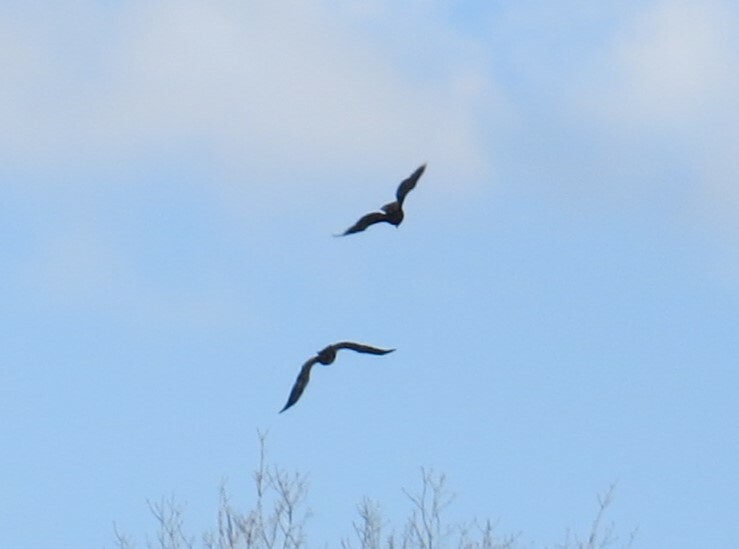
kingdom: Animalia
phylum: Chordata
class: Aves
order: Accipitriformes
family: Accipitridae
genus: Haliaeetus
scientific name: Haliaeetus leucocephalus
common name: Bald eagle
